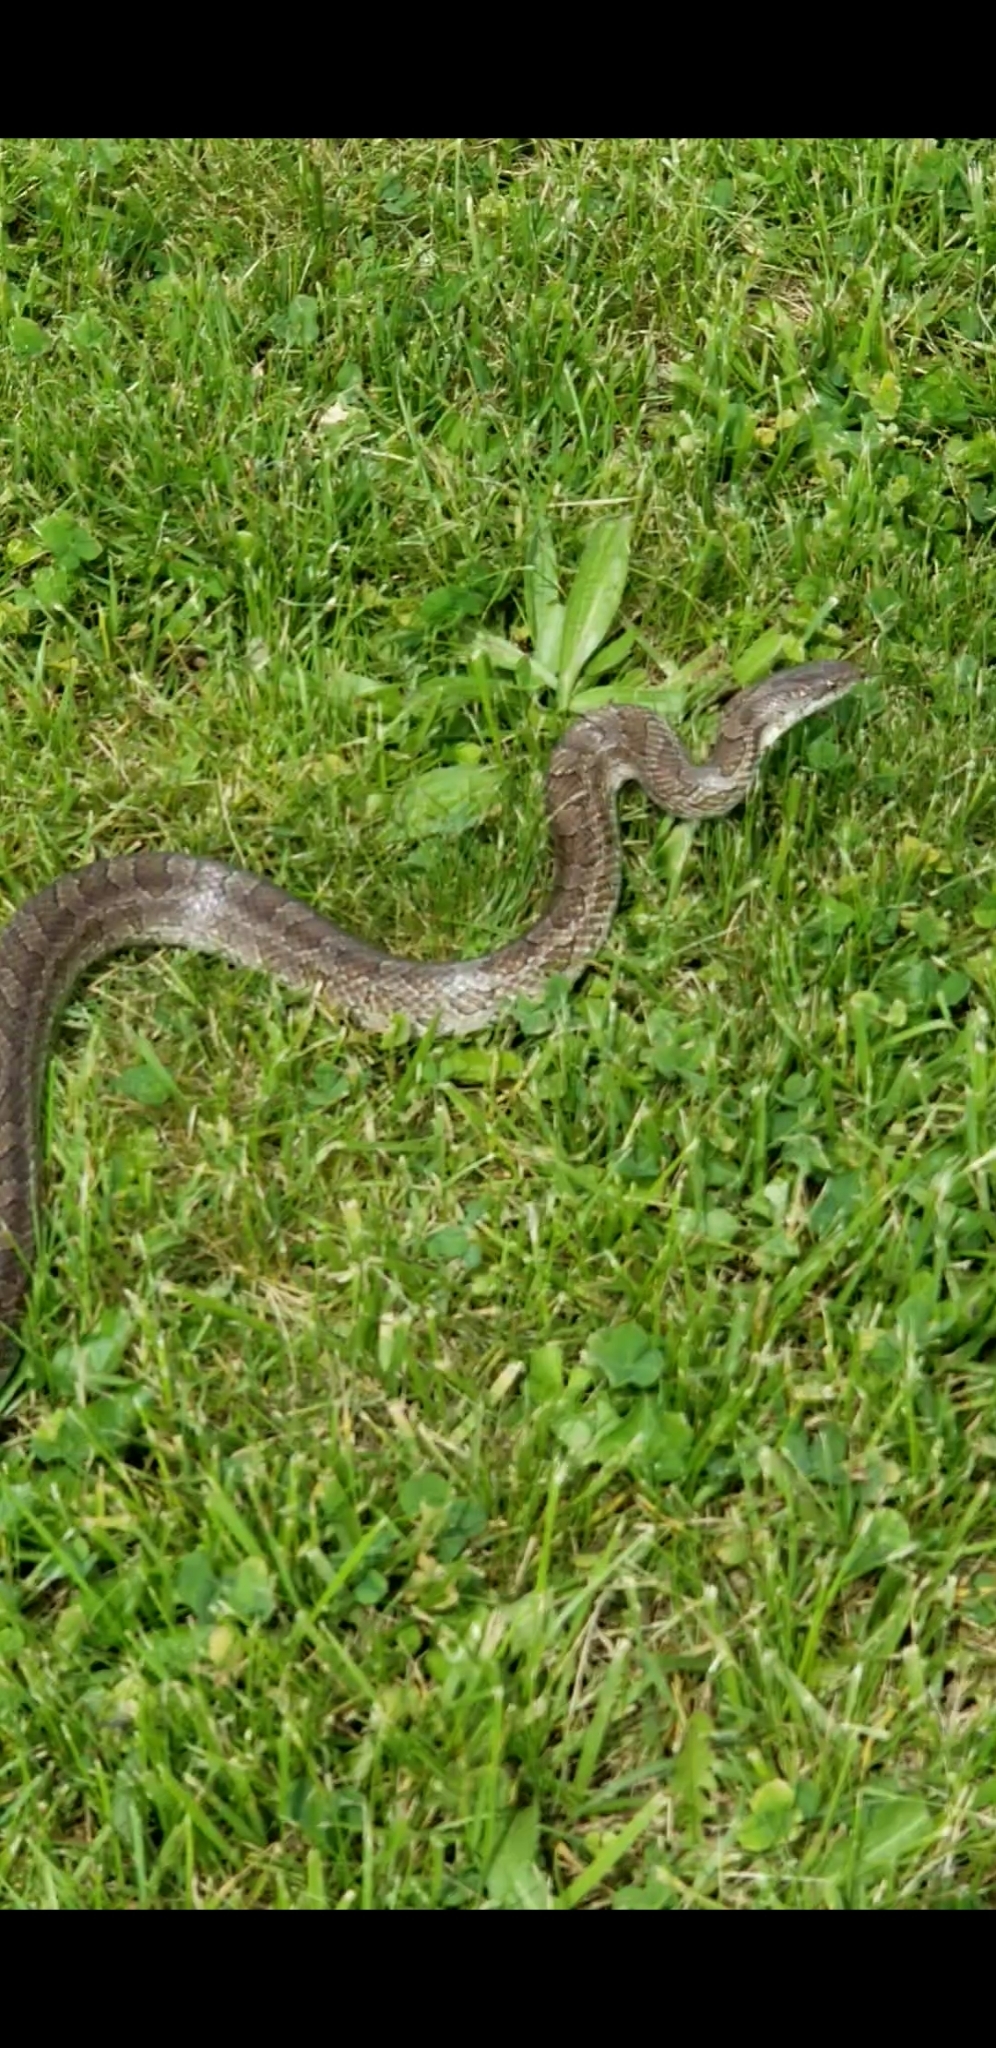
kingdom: Animalia
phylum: Chordata
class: Squamata
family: Colubridae
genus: Lampropeltis
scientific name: Lampropeltis calligaster
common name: Prairie kingsnake
